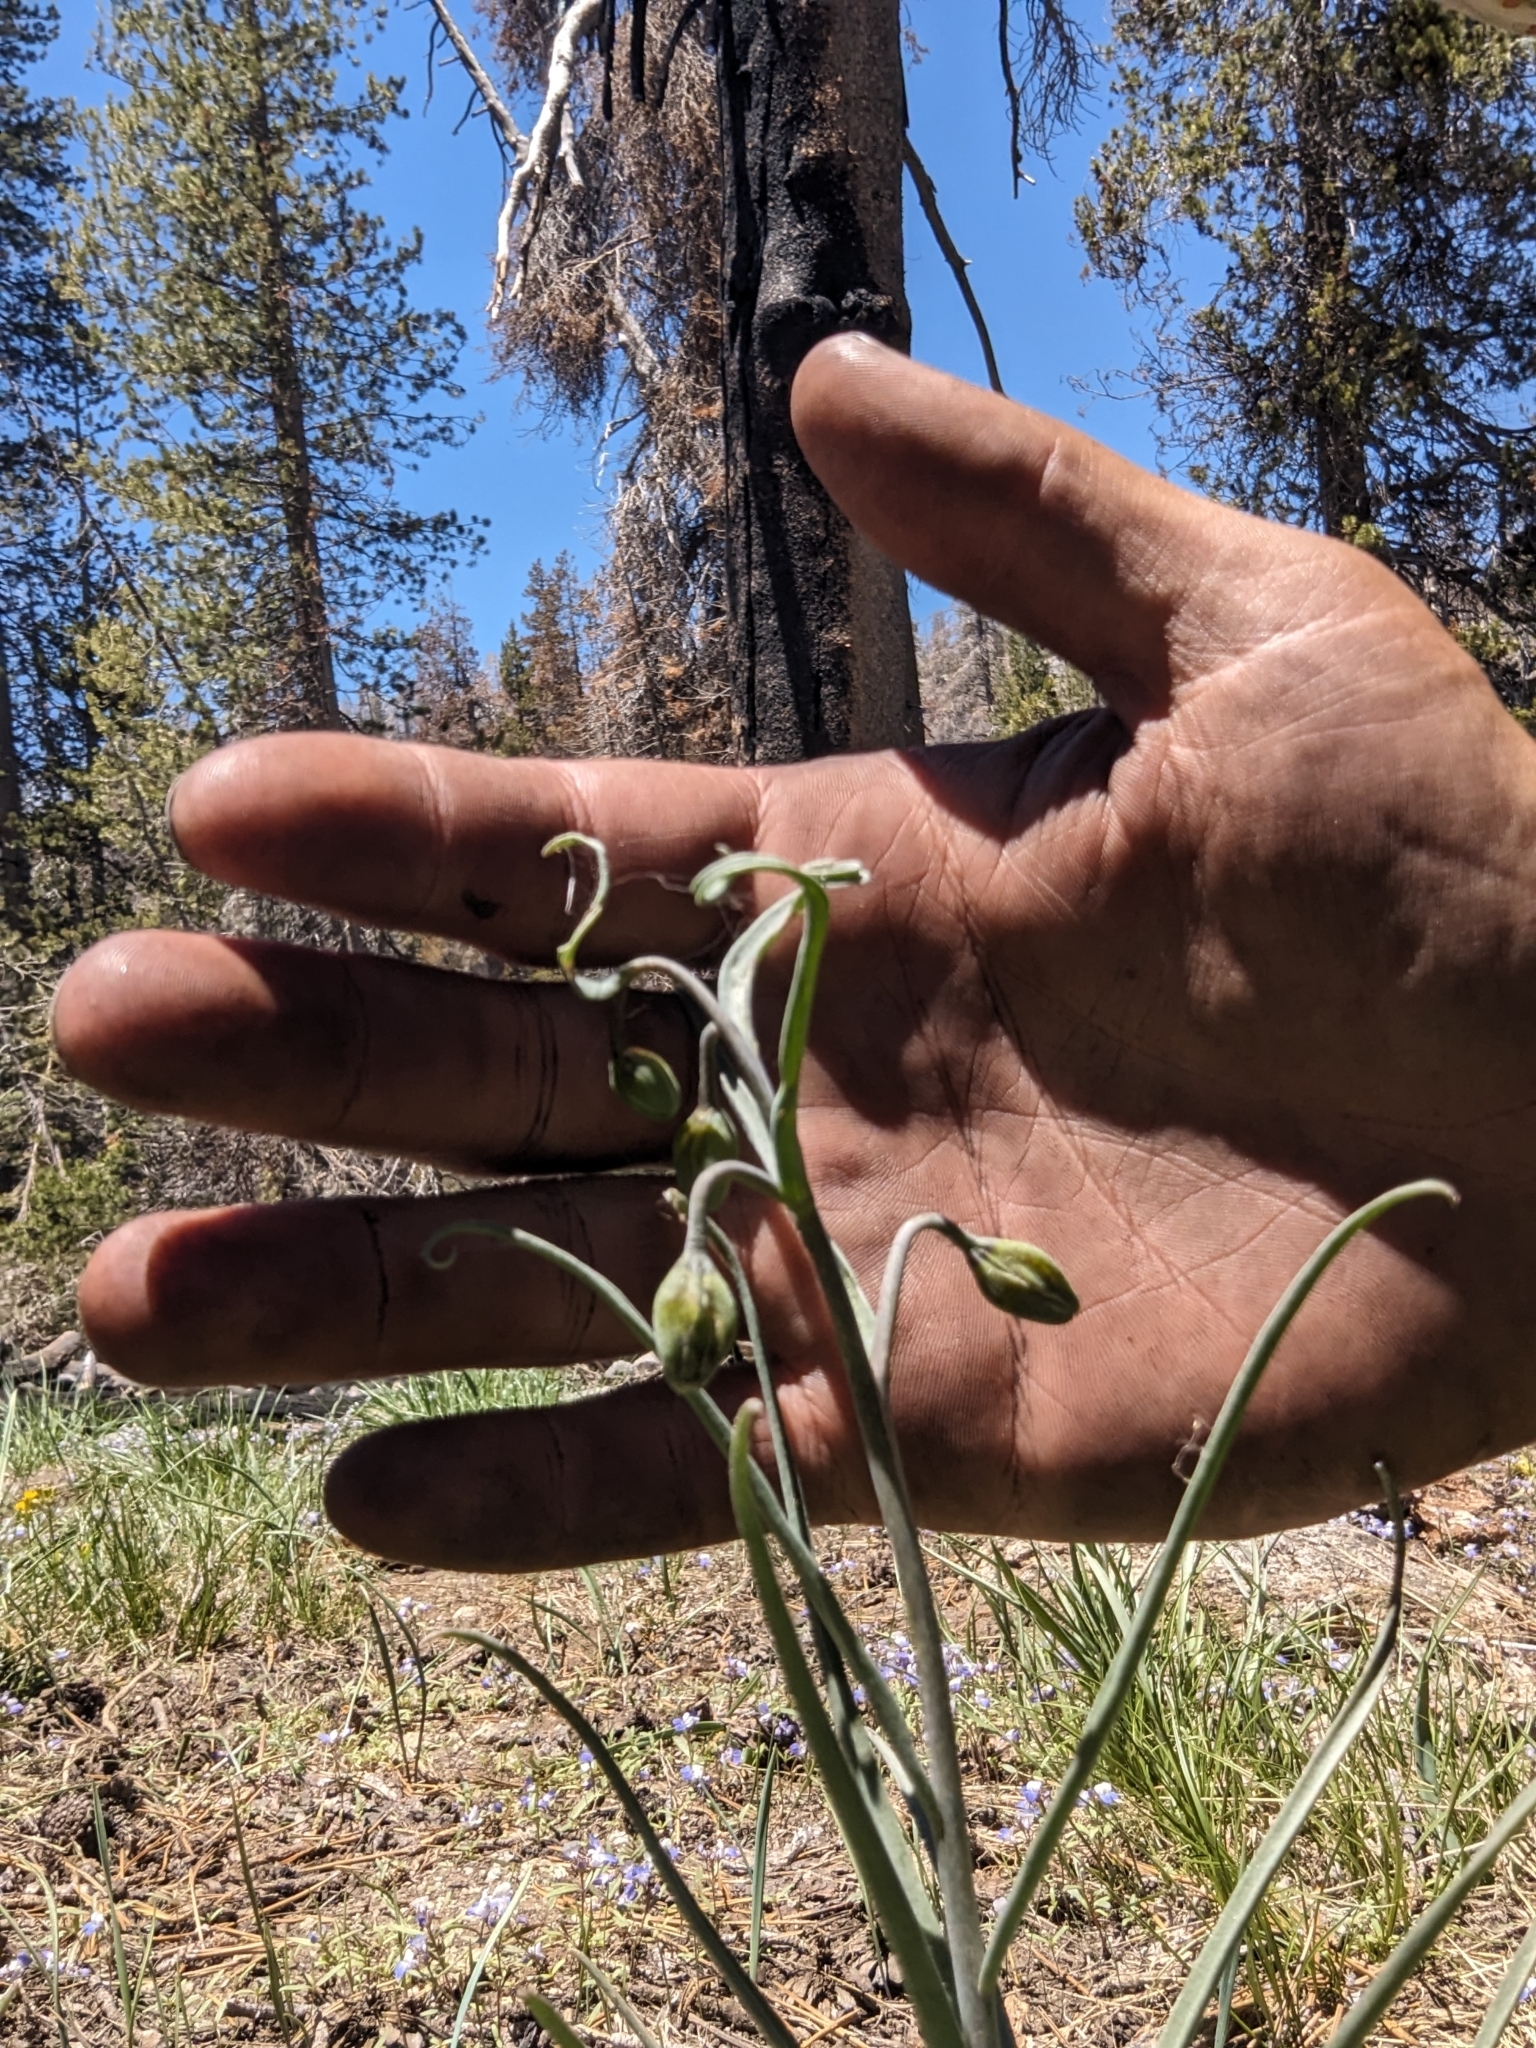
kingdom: Plantae
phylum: Tracheophyta
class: Liliopsida
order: Liliales
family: Liliaceae
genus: Fritillaria
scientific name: Fritillaria pinetorum
